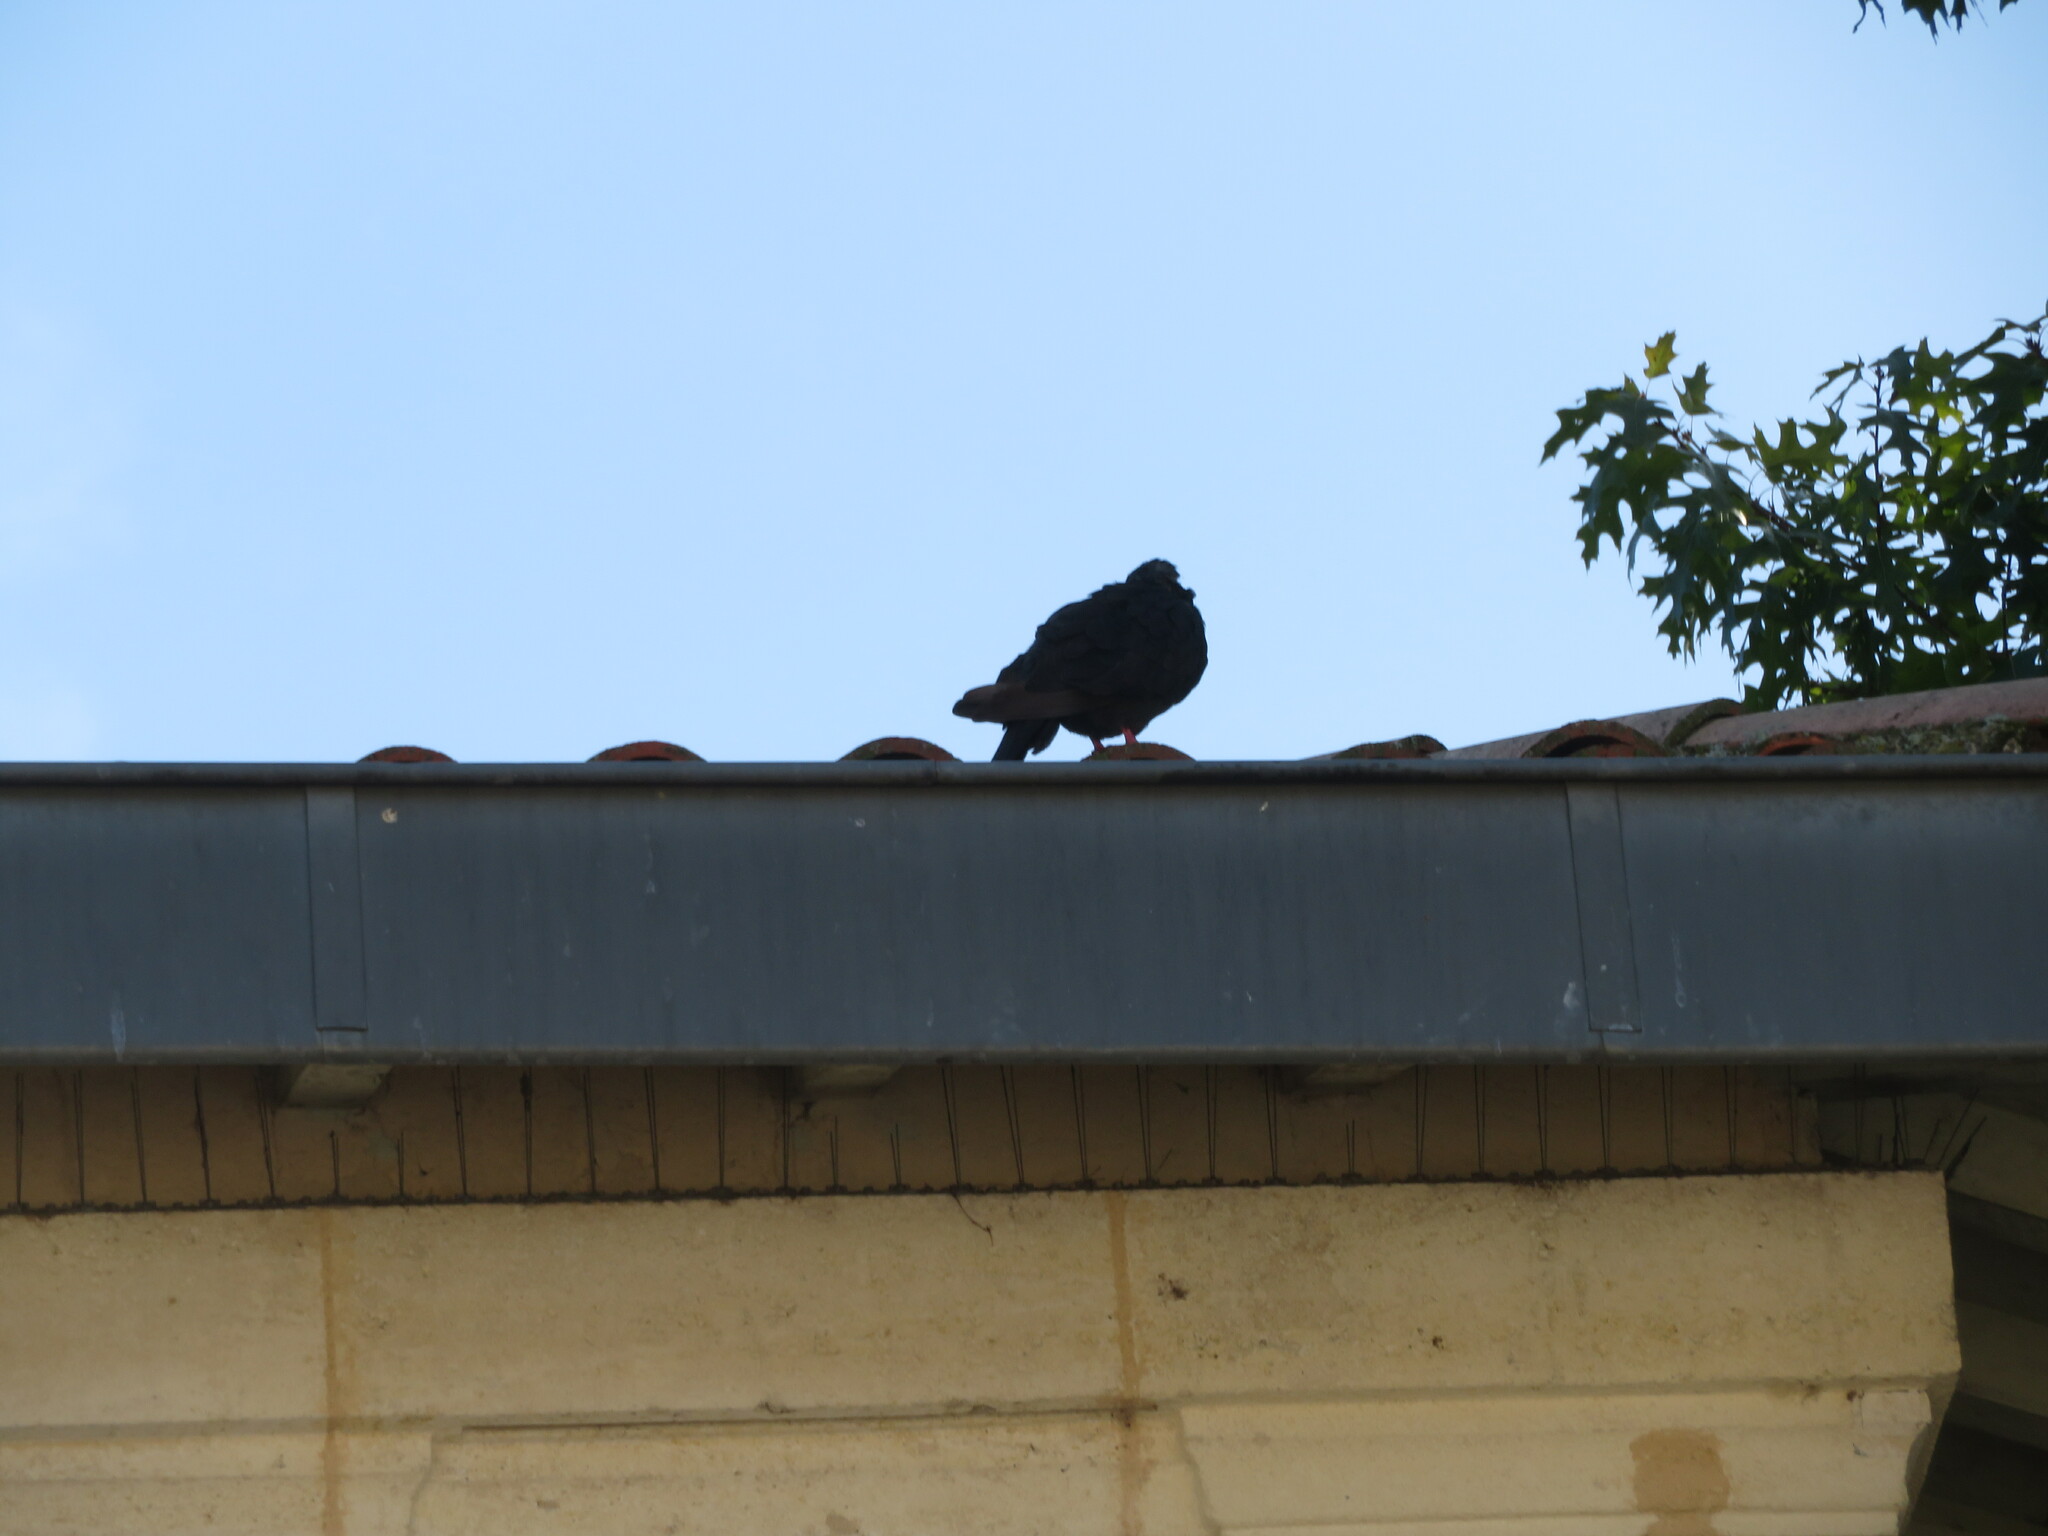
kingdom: Animalia
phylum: Chordata
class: Aves
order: Columbiformes
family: Columbidae
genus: Columba
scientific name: Columba livia
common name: Rock pigeon
